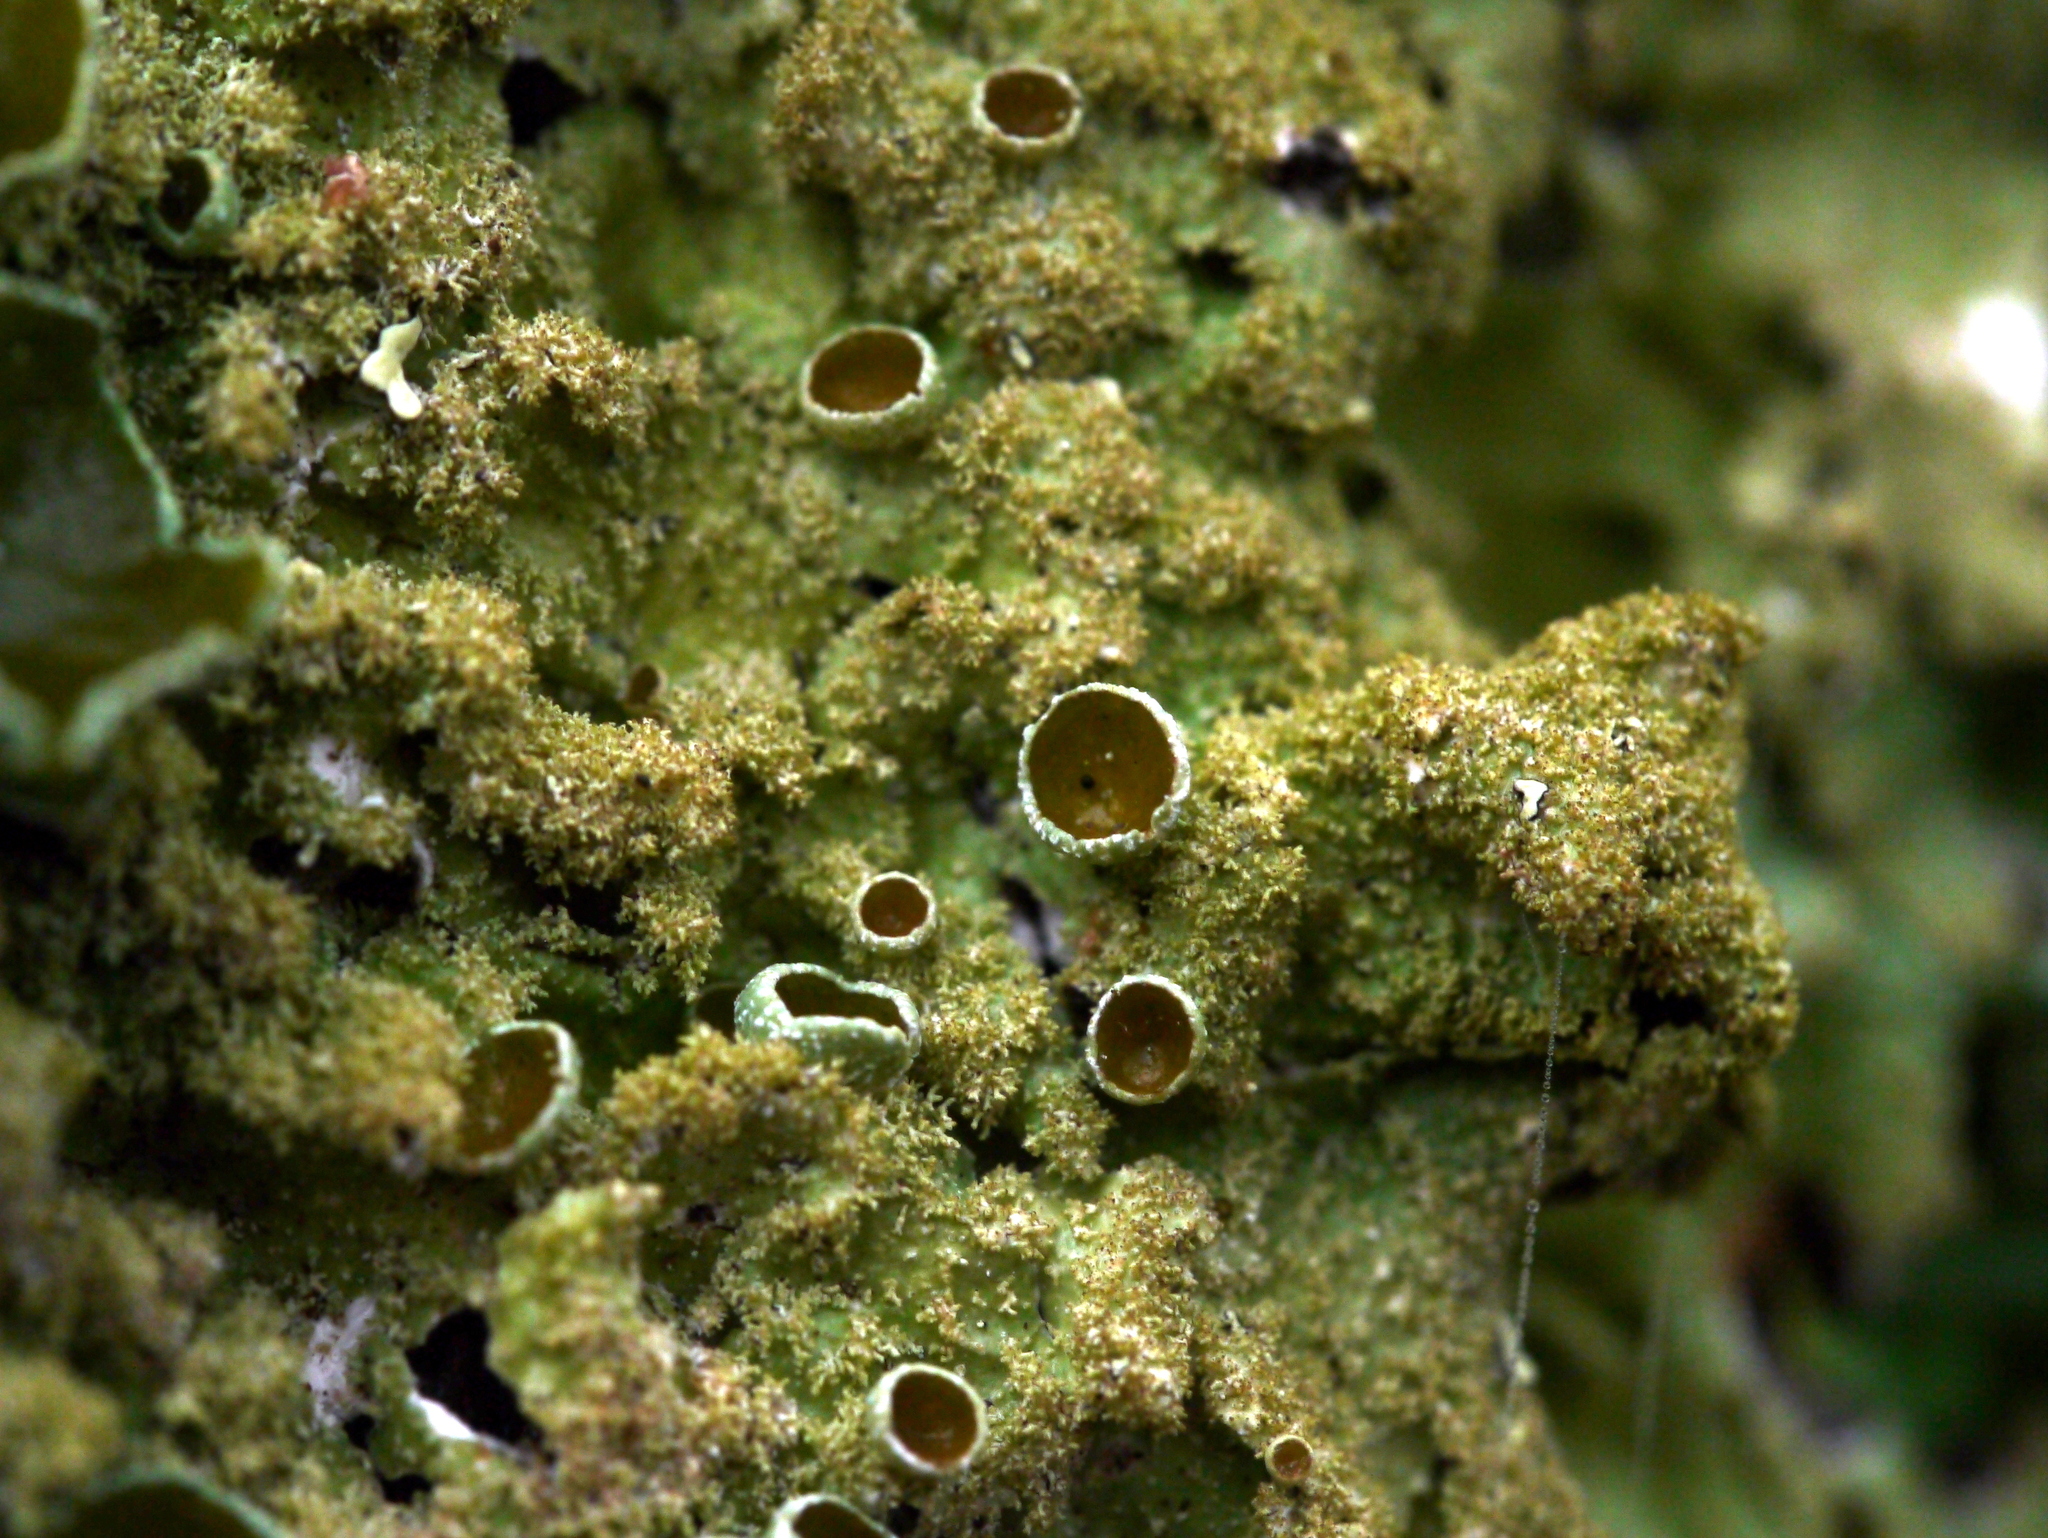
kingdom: Fungi
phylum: Ascomycota
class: Lecanoromycetes
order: Lecanorales
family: Parmeliaceae
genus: Punctelia
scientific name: Punctelia rudecta
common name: Rough speckled shield lichen
